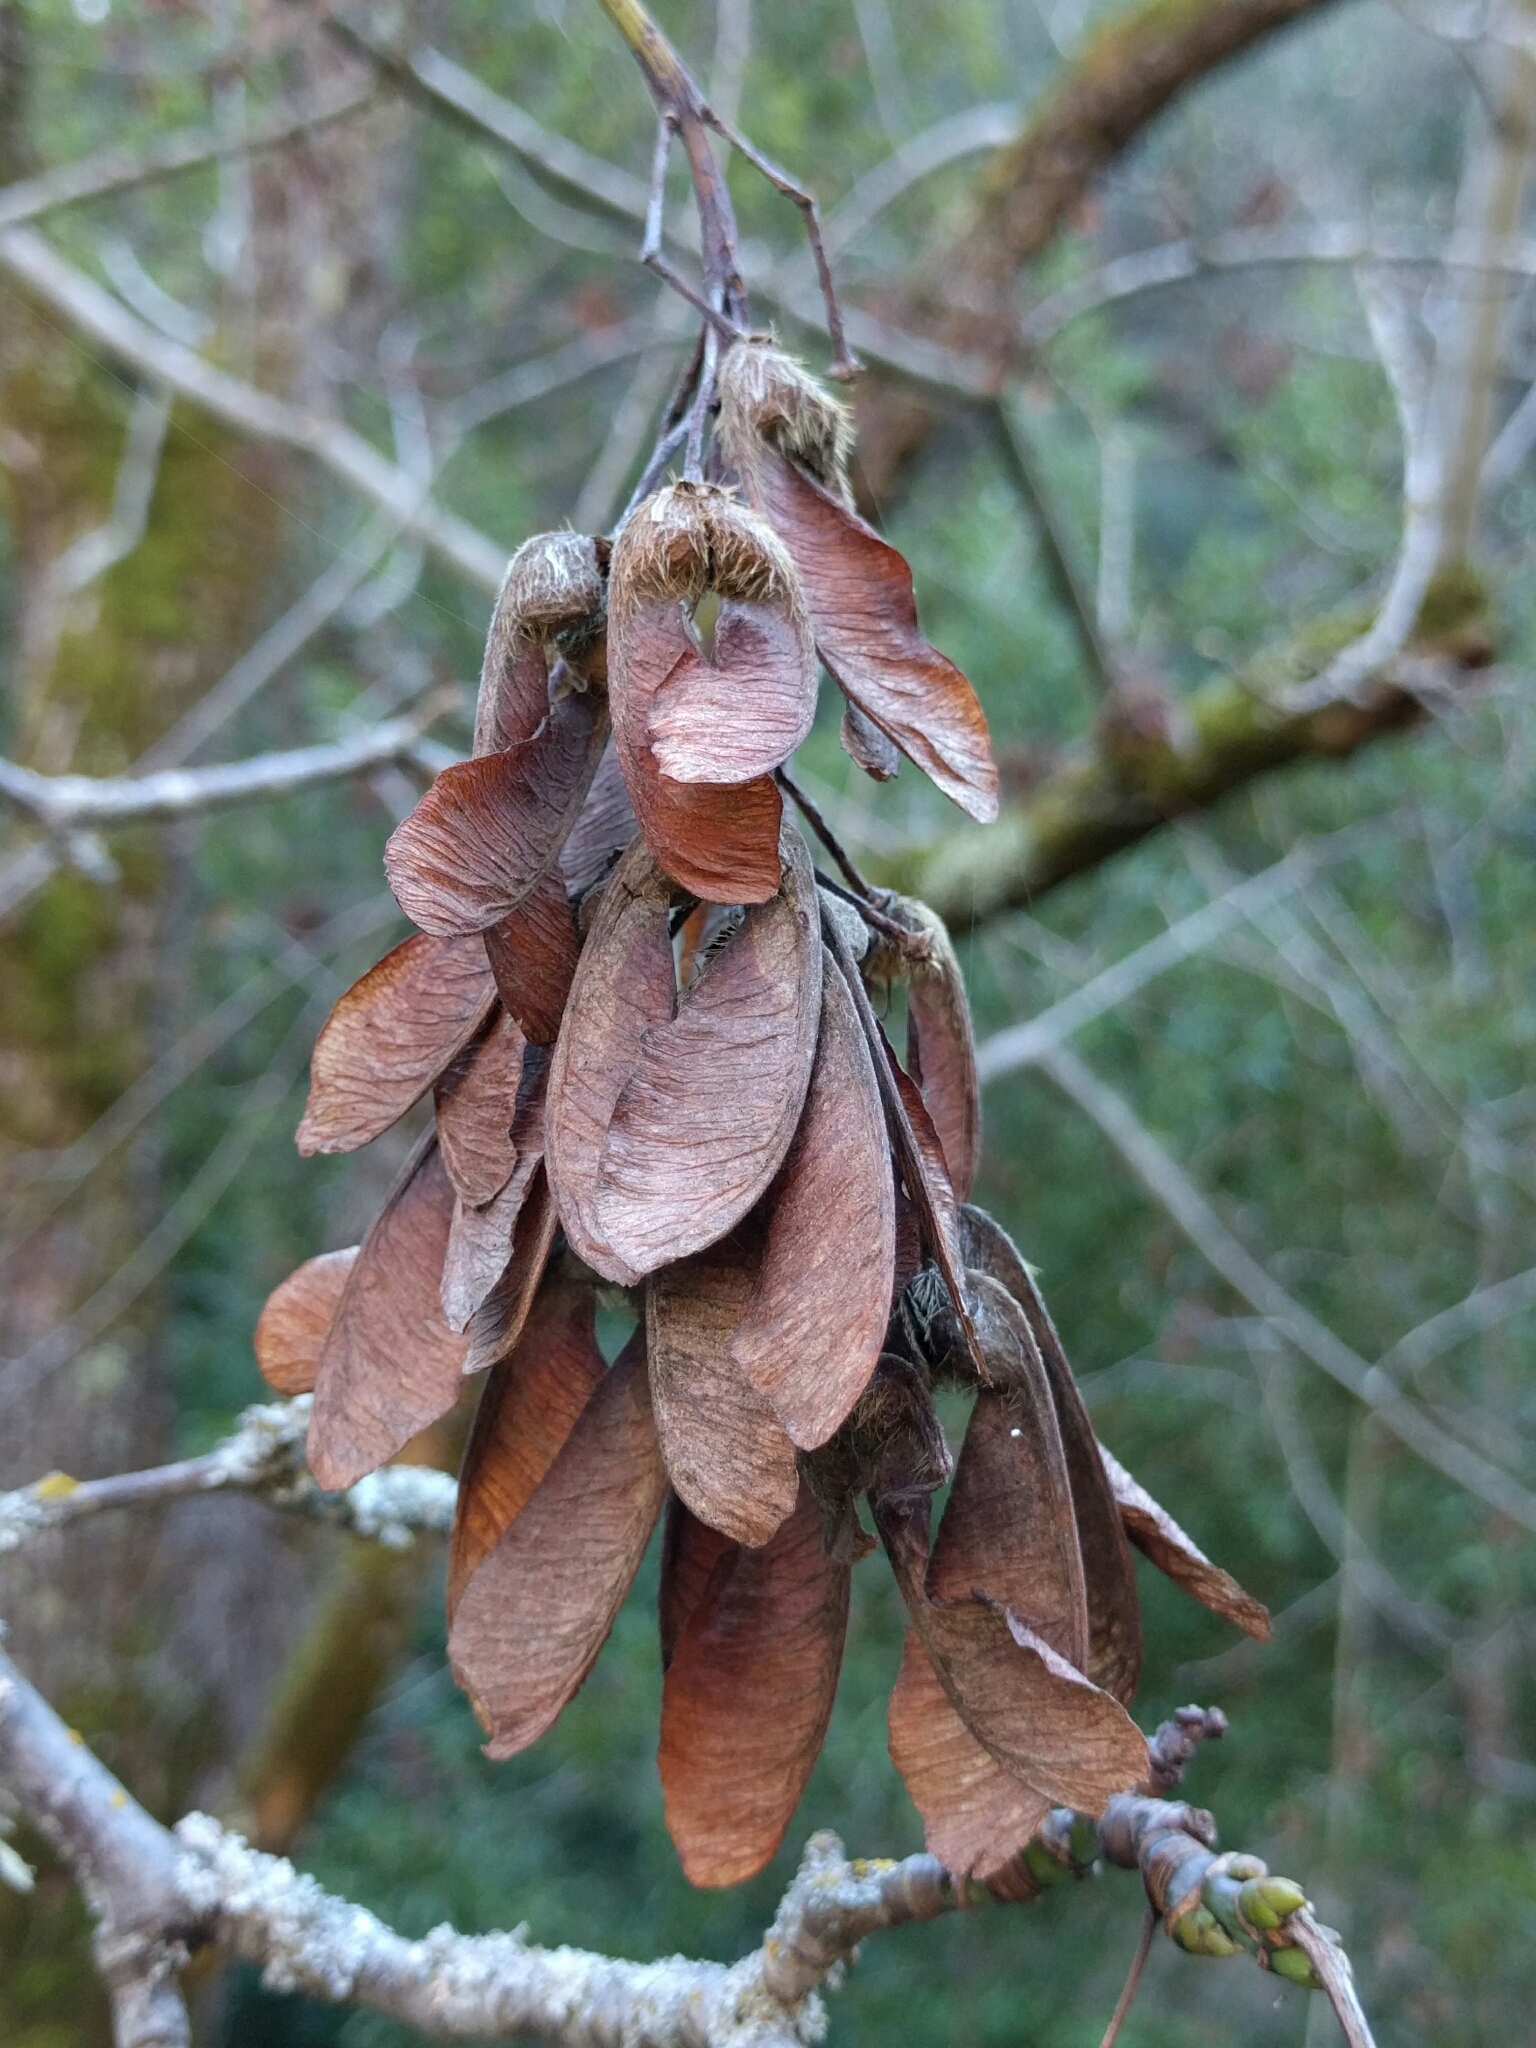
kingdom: Plantae
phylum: Tracheophyta
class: Magnoliopsida
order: Sapindales
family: Sapindaceae
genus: Acer
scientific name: Acer macrophyllum
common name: Oregon maple
